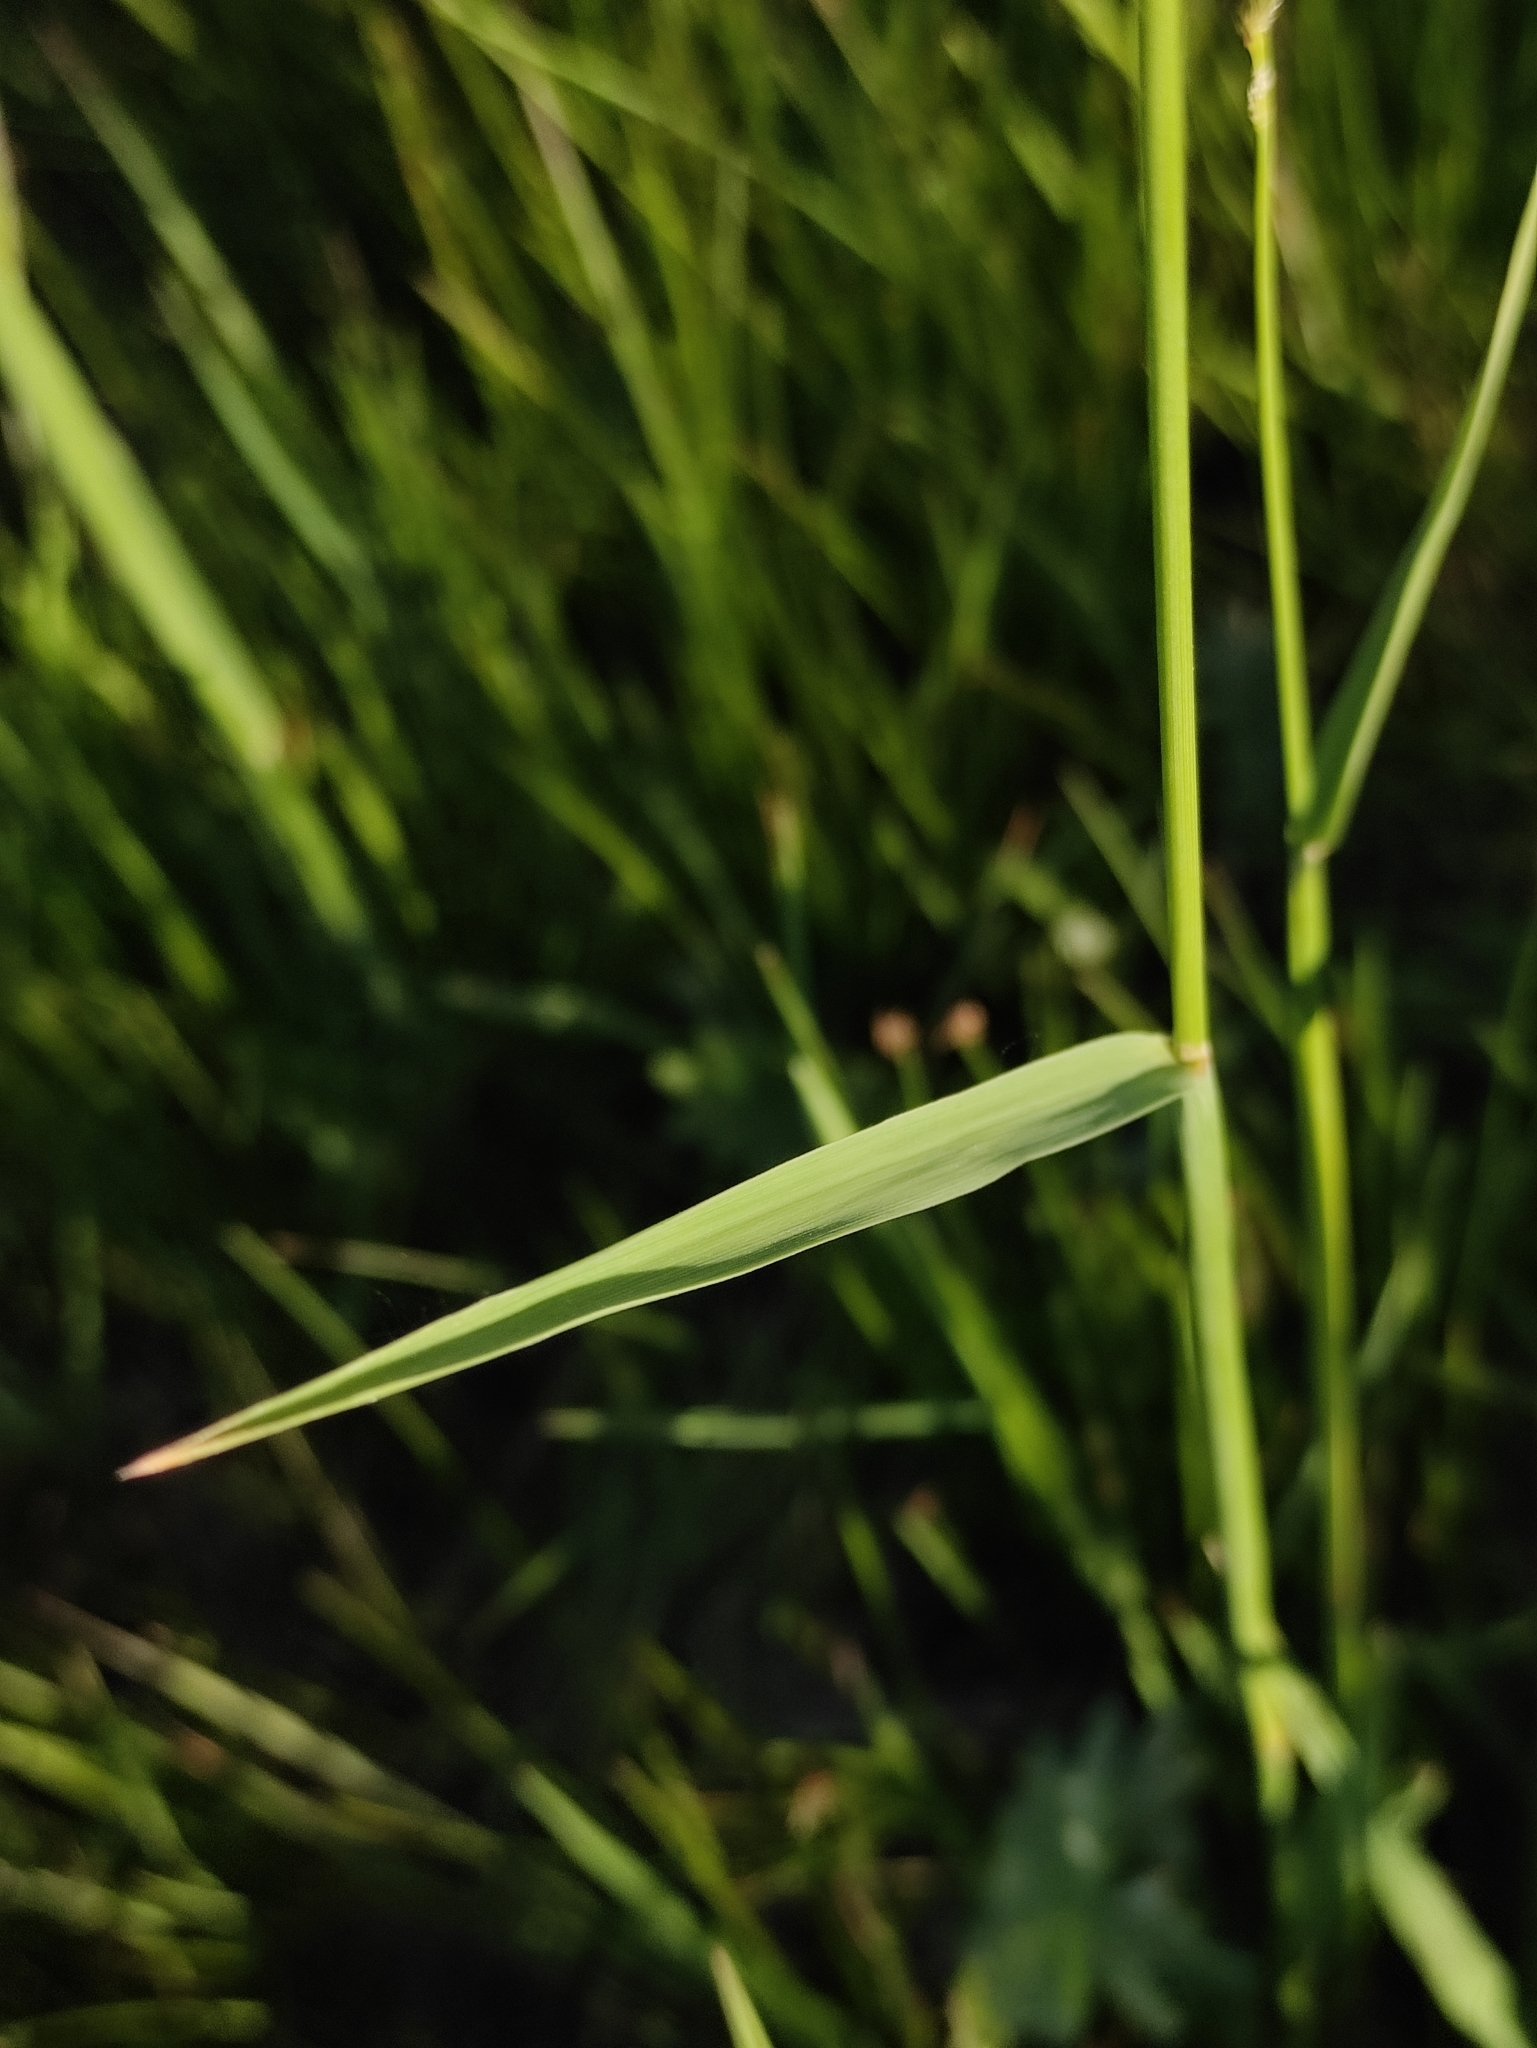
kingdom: Plantae
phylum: Tracheophyta
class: Liliopsida
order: Poales
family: Poaceae
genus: Alopecurus
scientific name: Alopecurus pratensis
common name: Meadow foxtail
